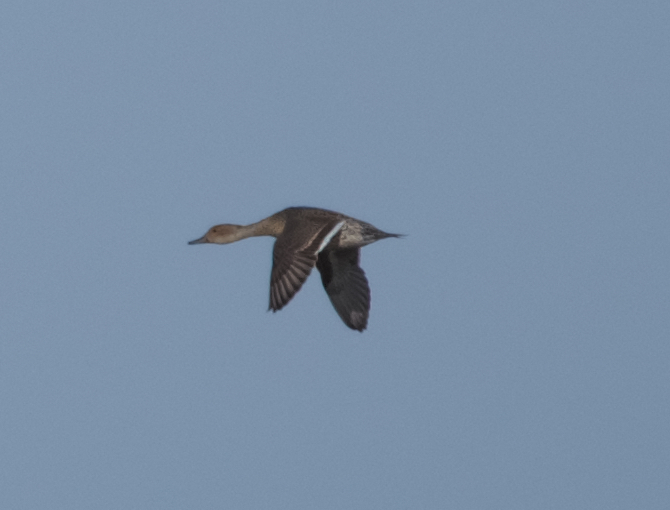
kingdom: Animalia
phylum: Chordata
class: Aves
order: Anseriformes
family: Anatidae
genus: Anas
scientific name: Anas acuta
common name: Northern pintail
